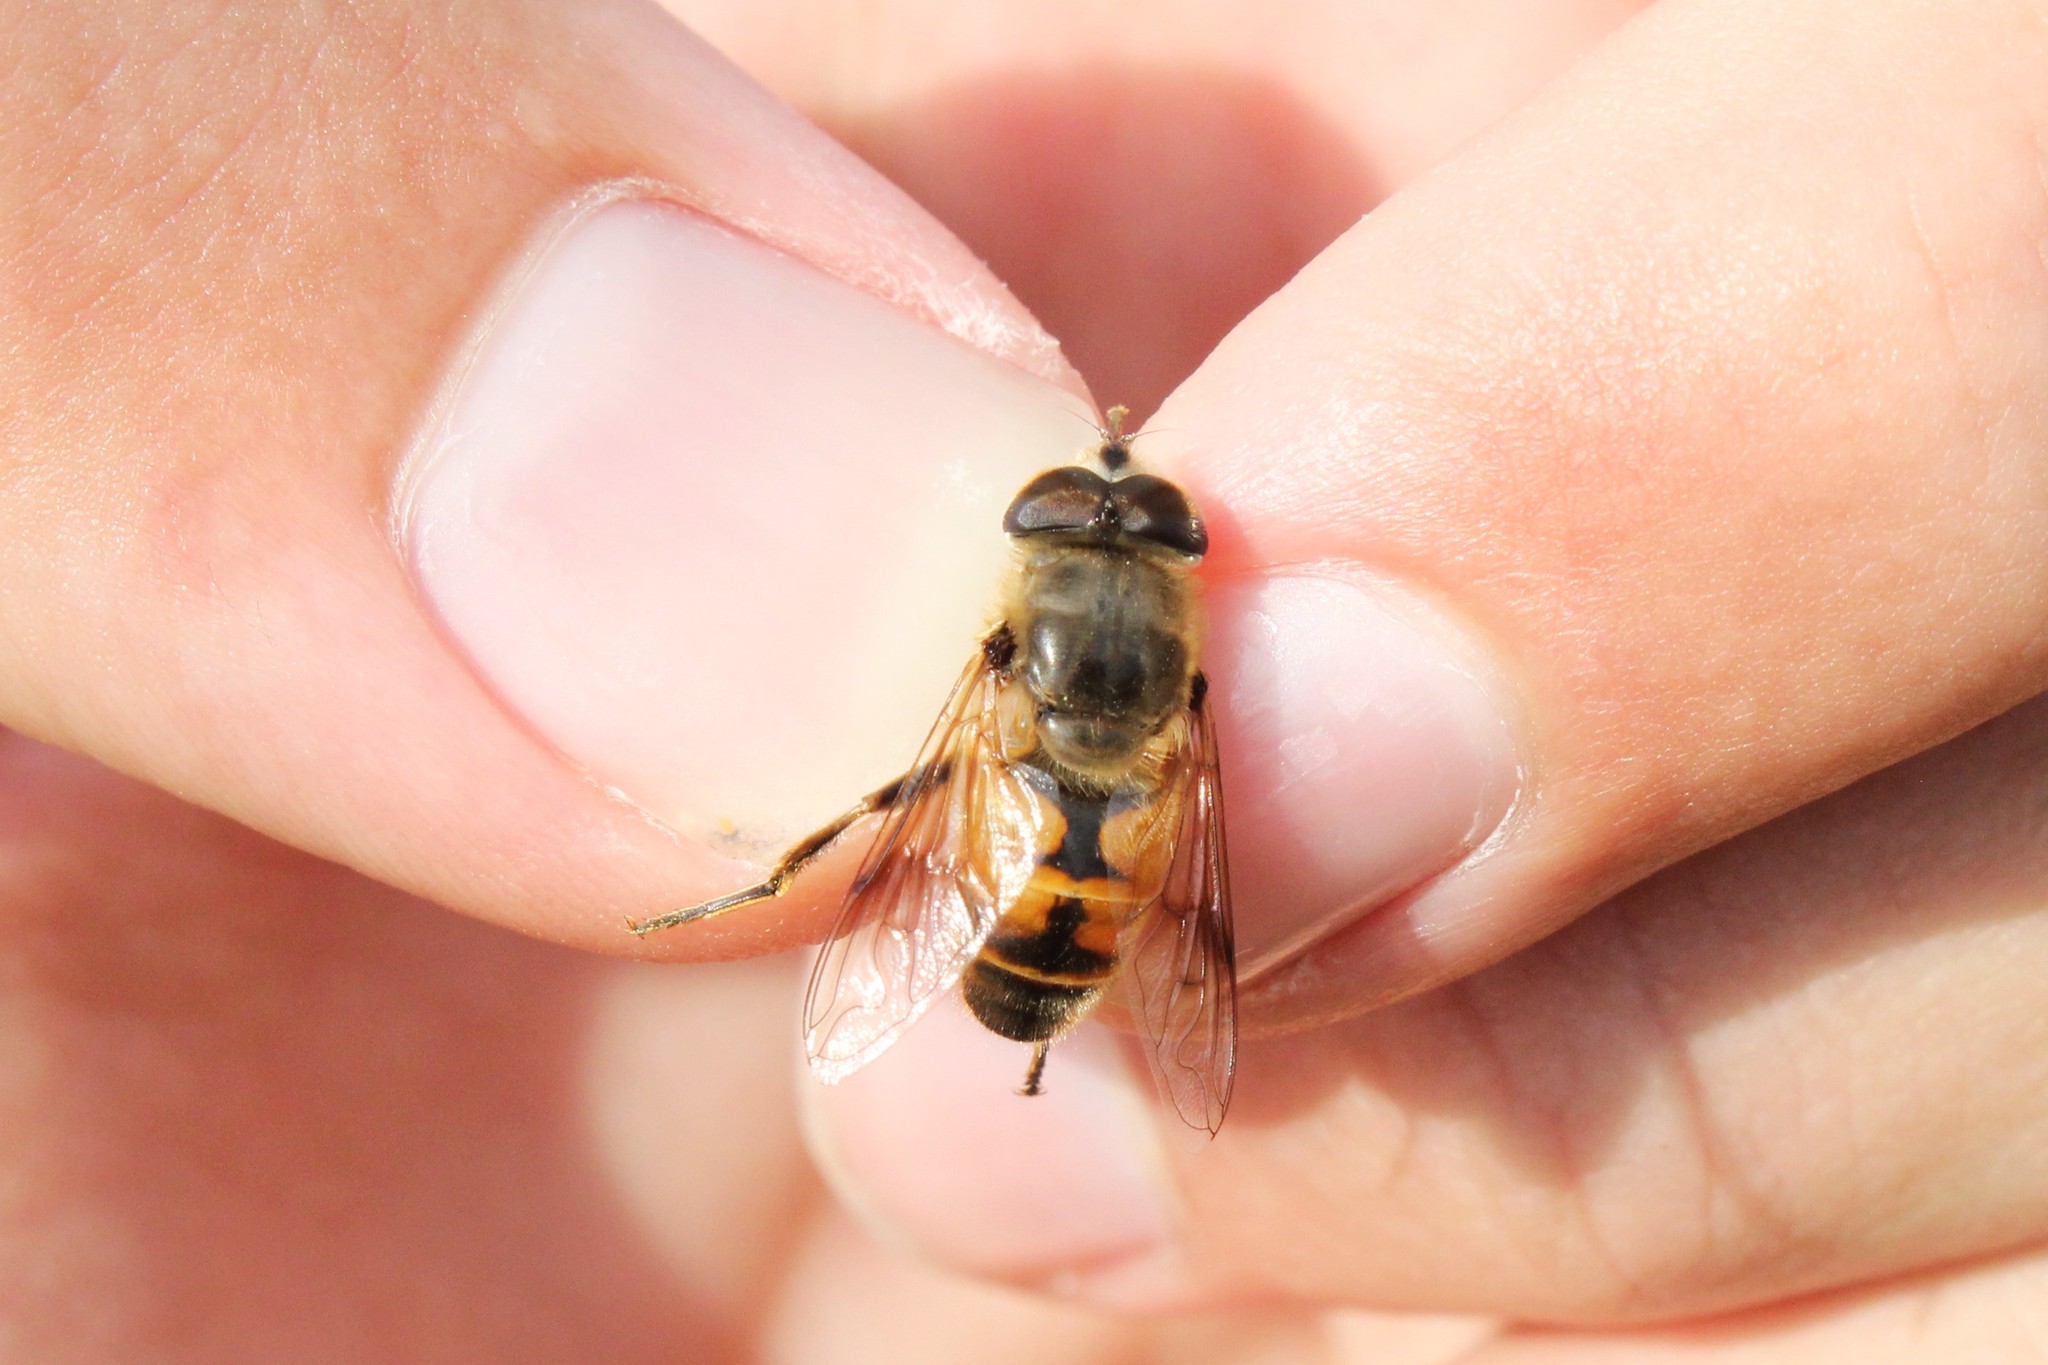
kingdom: Animalia
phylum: Arthropoda
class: Insecta
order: Diptera
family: Syrphidae
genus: Eristalis
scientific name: Eristalis tenax
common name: Drone fly
